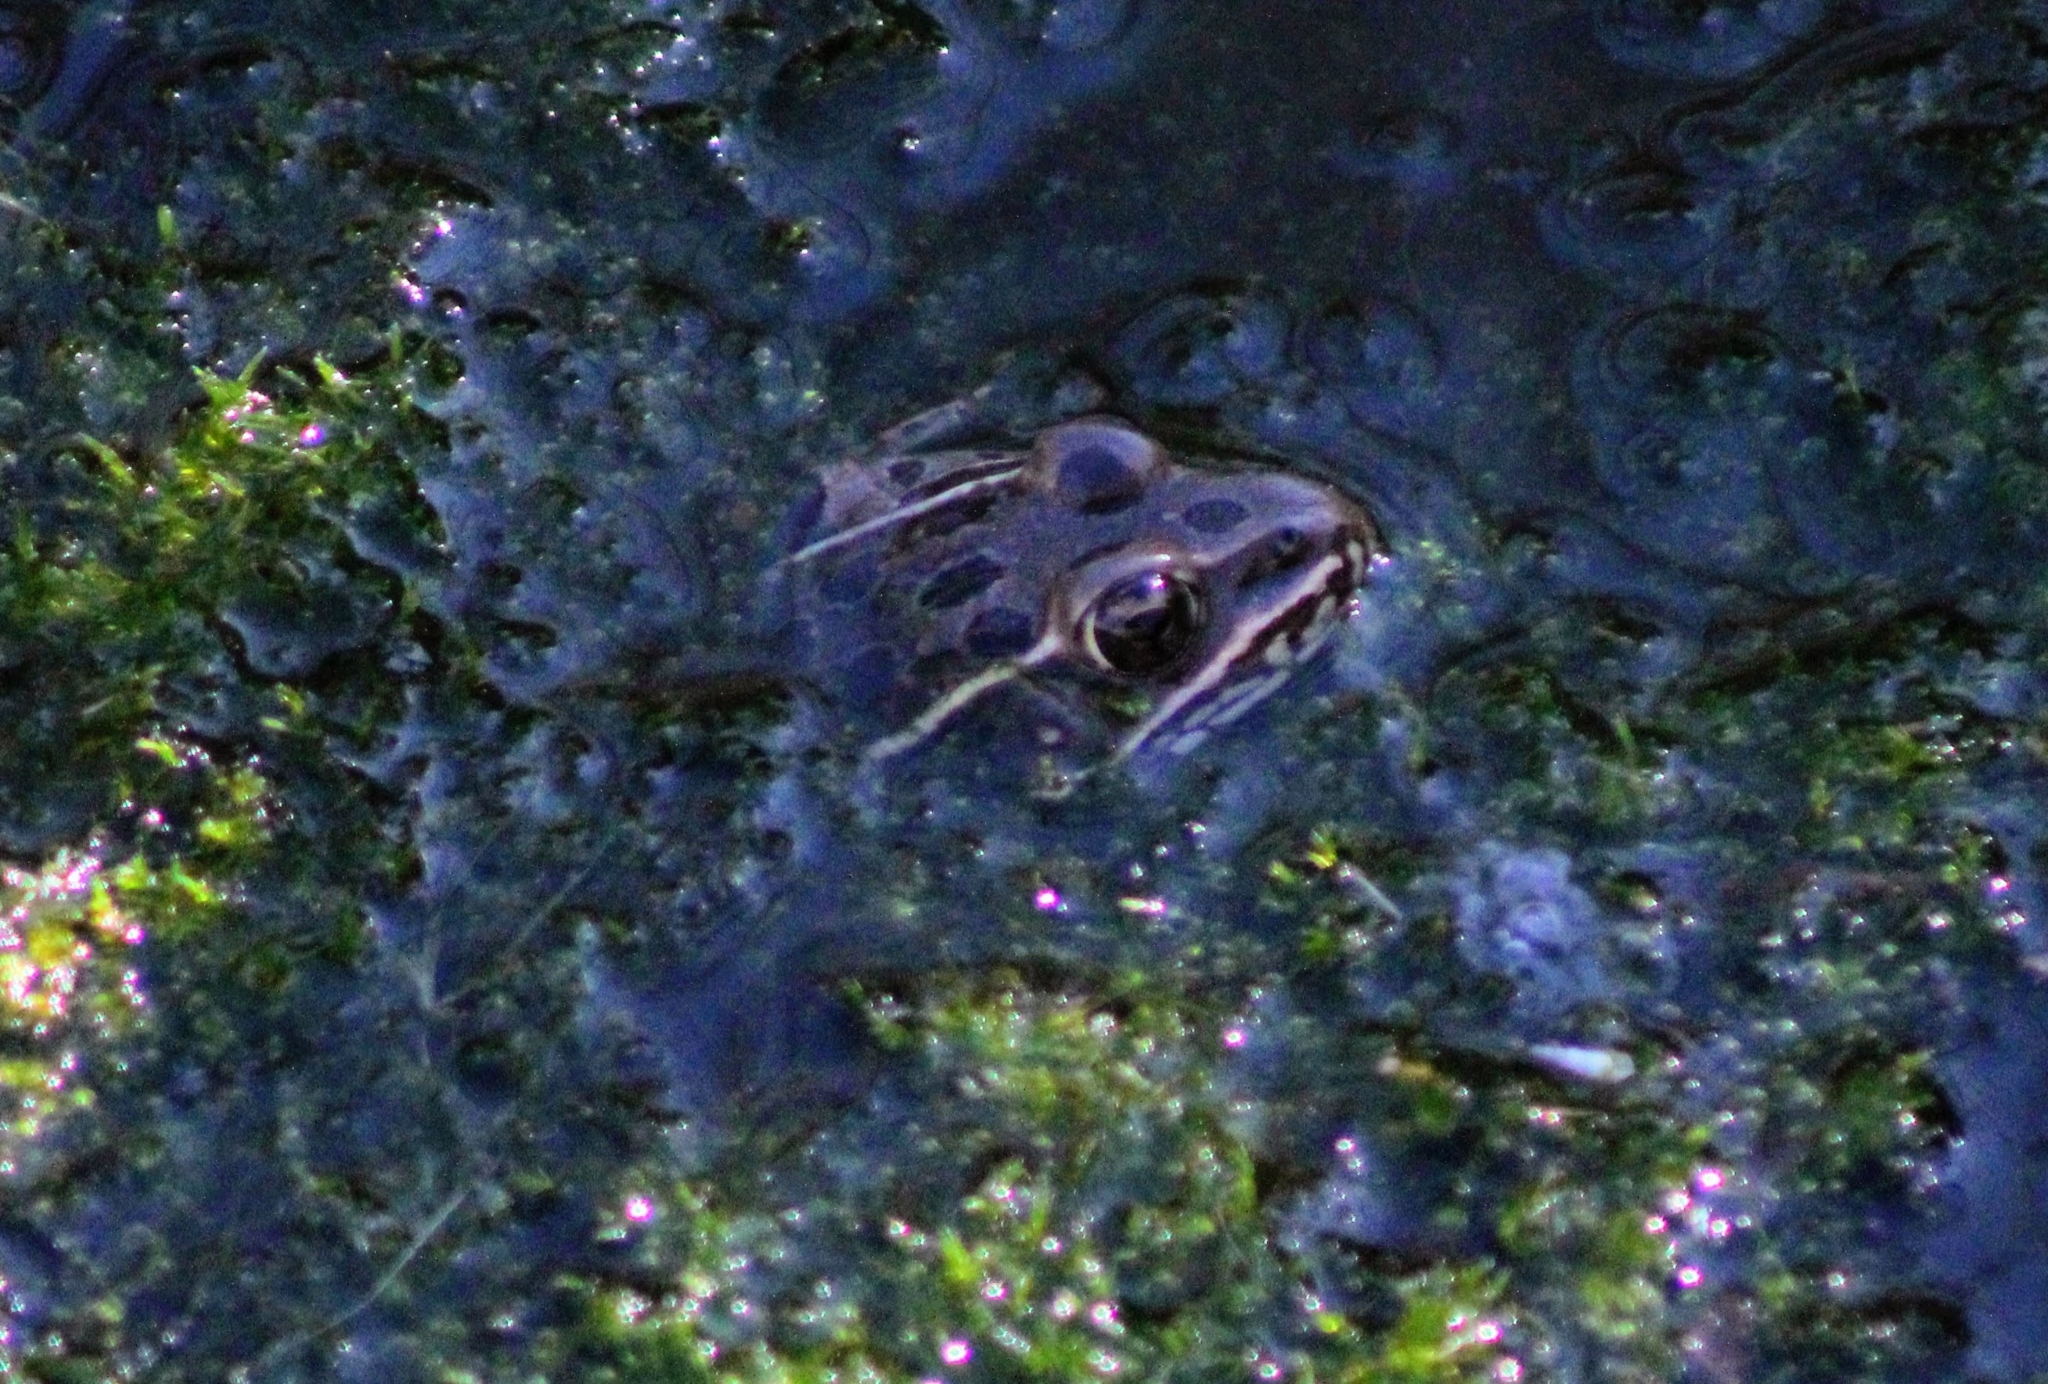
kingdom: Animalia
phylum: Chordata
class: Amphibia
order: Anura
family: Ranidae
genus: Lithobates
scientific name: Lithobates blairi
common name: Plains leopard frog
